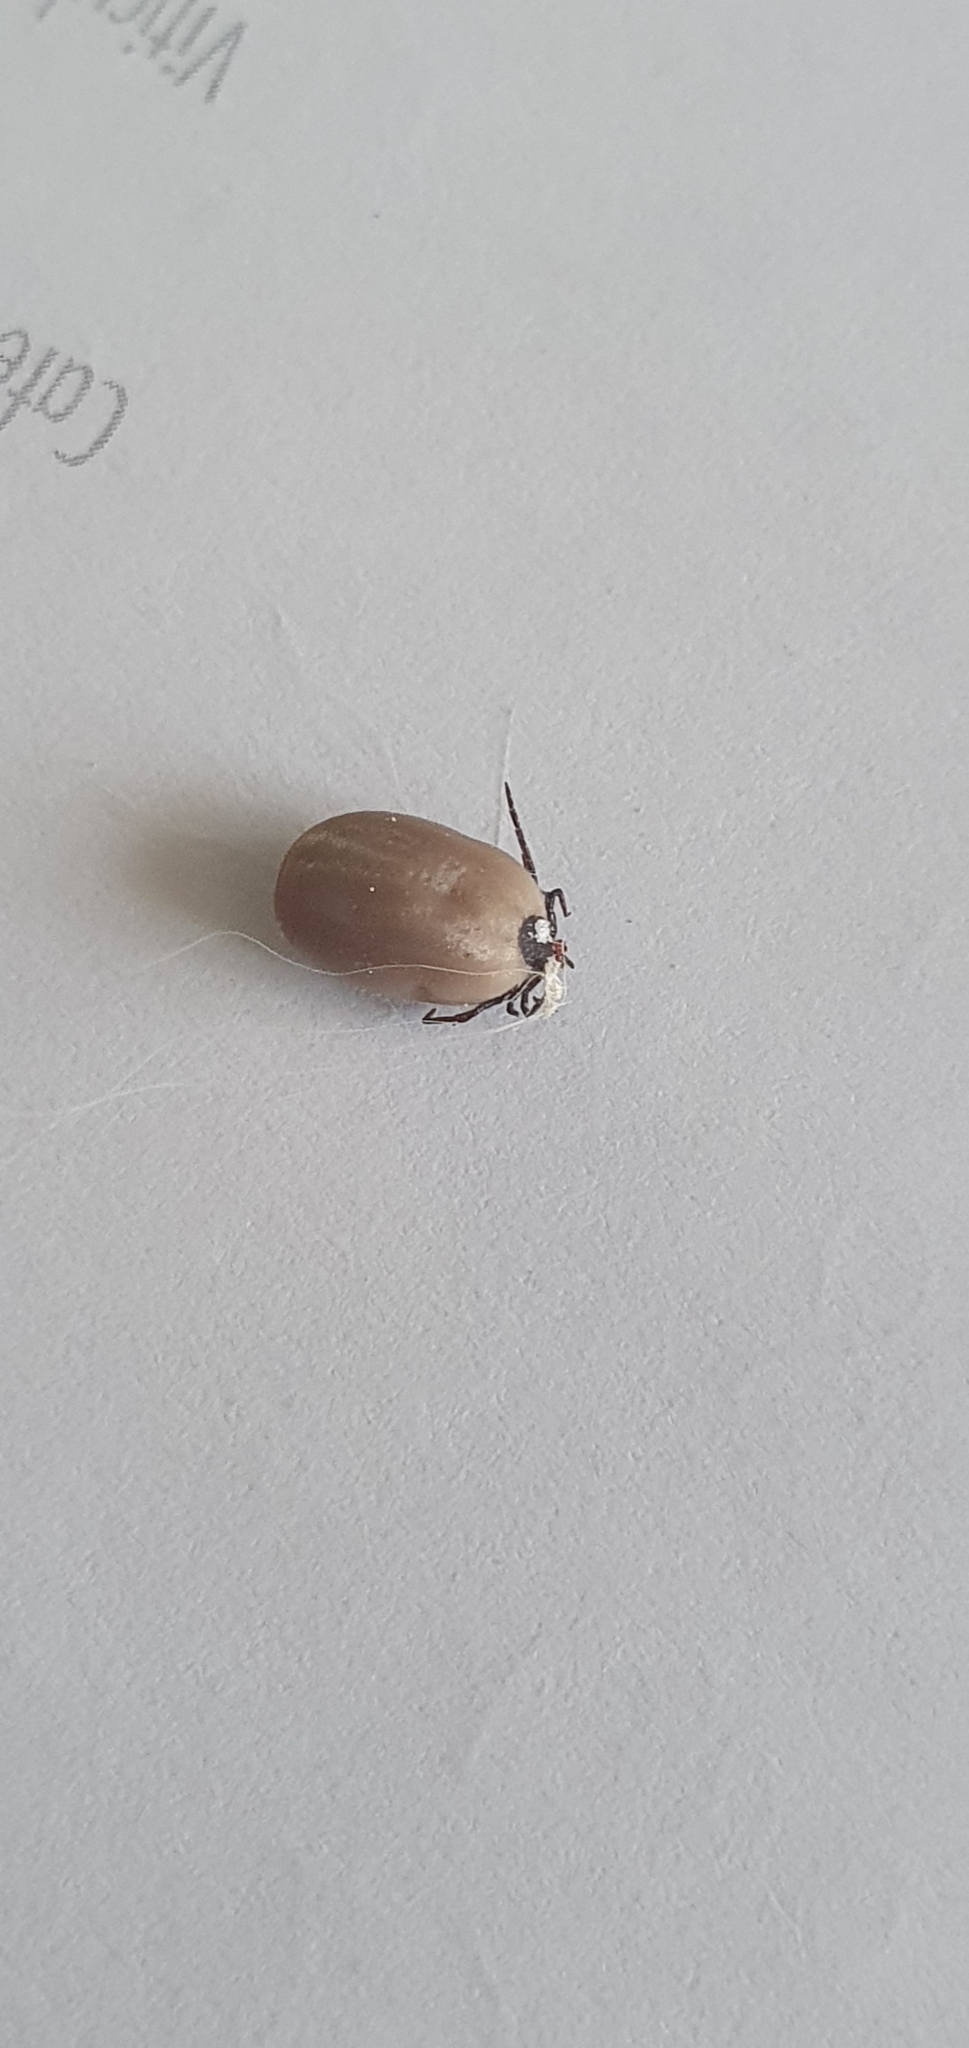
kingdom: Animalia
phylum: Arthropoda
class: Arachnida
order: Ixodida
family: Ixodidae
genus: Ixodes
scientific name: Ixodes ricinus
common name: Castor bean tick
